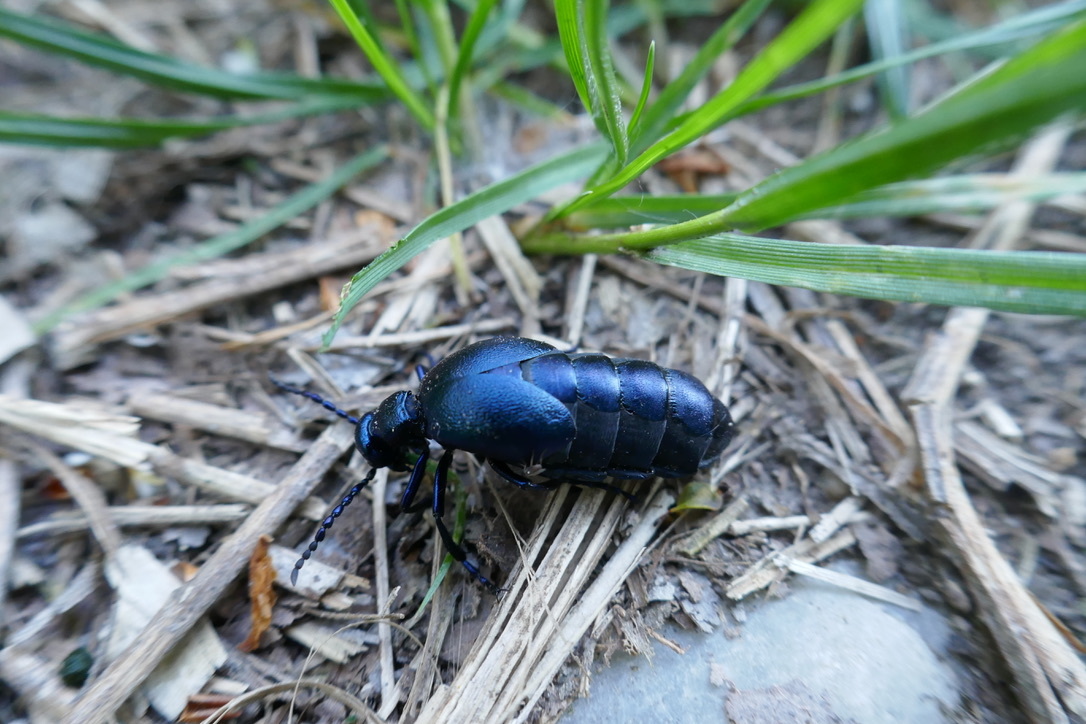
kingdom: Animalia
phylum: Arthropoda
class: Insecta
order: Coleoptera
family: Meloidae
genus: Meloe
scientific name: Meloe violaceus
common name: Violet oil-beetle
